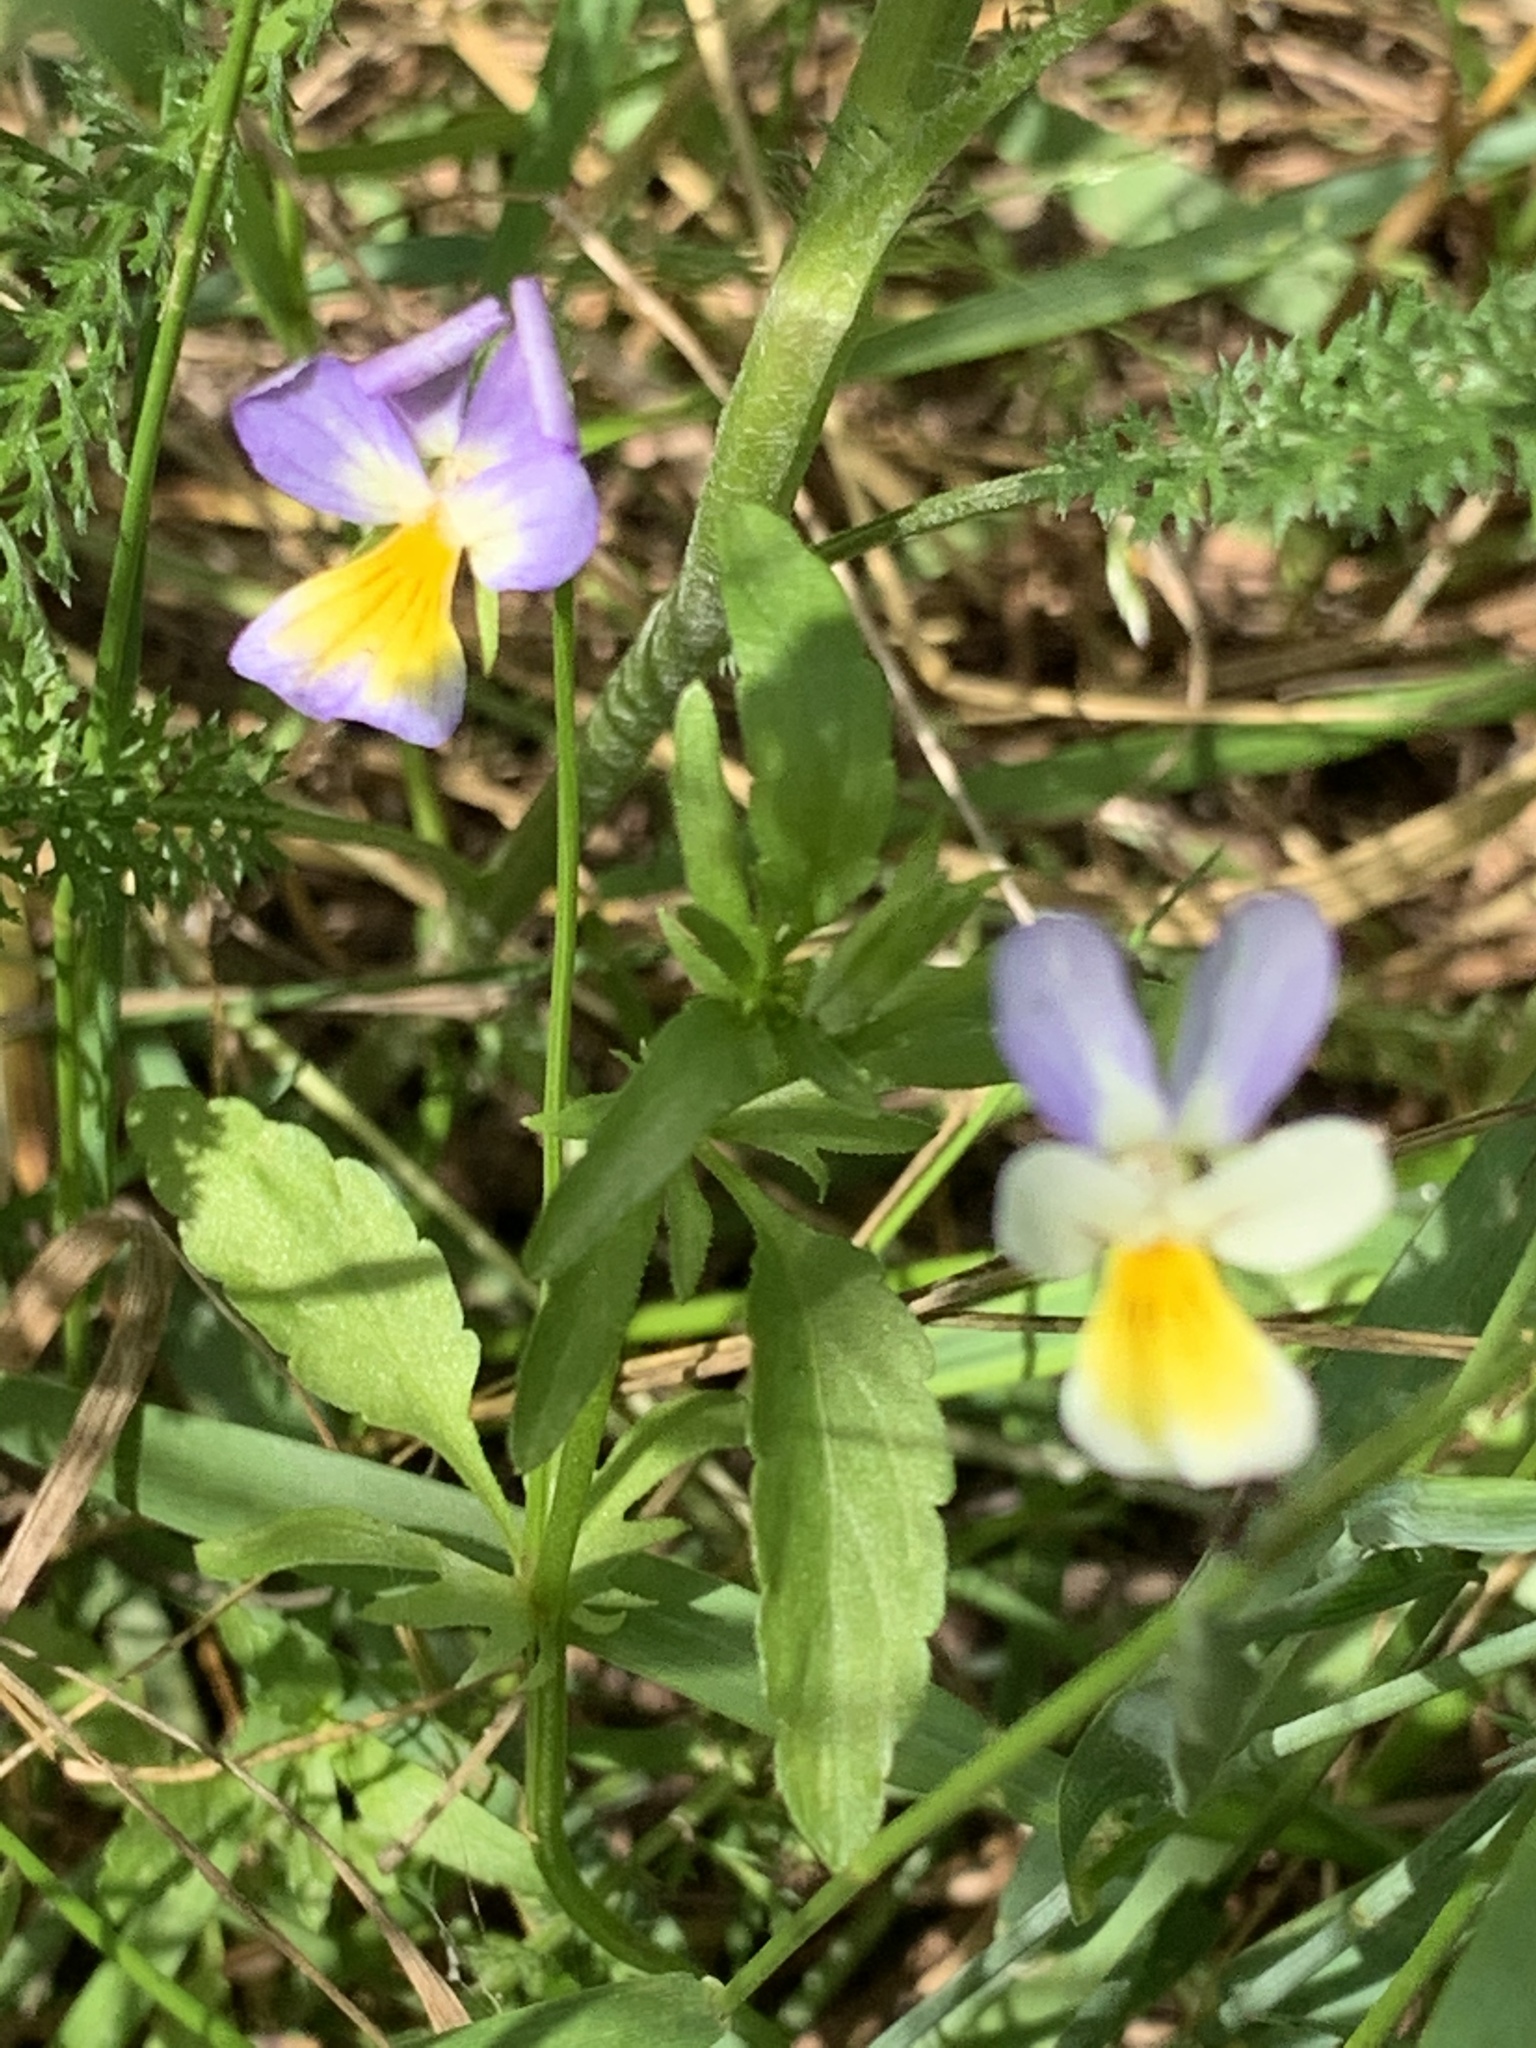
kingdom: Plantae
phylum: Tracheophyta
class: Magnoliopsida
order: Malpighiales
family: Violaceae
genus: Viola
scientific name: Viola tricolor
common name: Pansy
